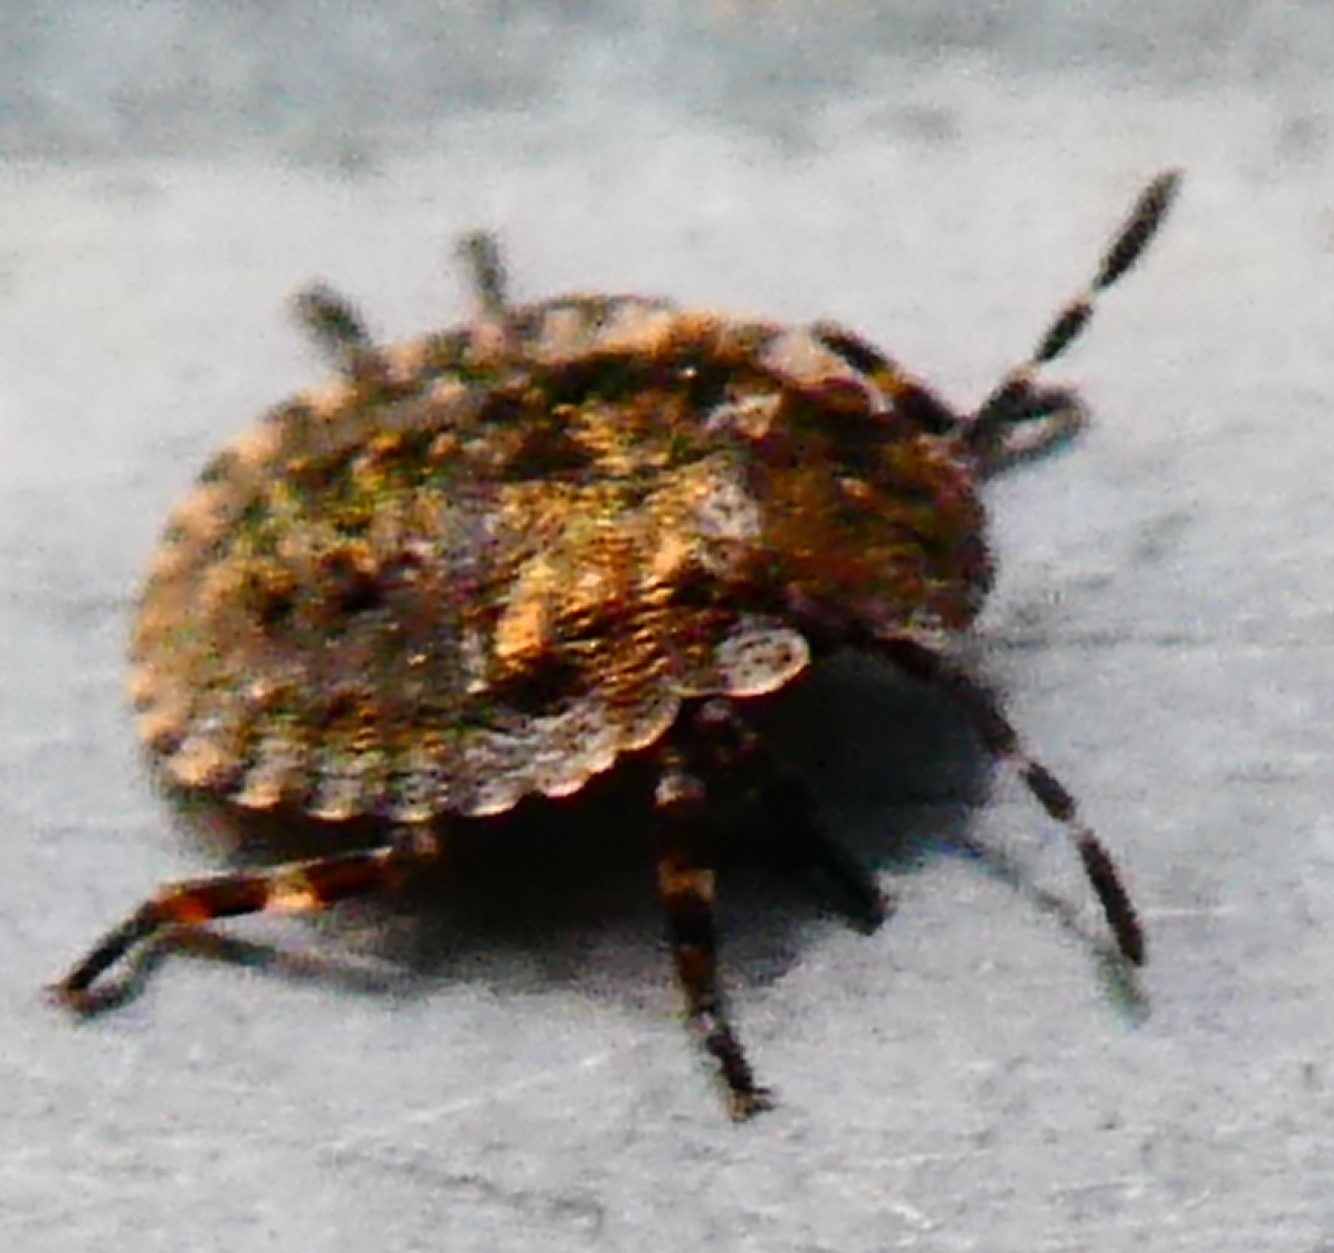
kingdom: Animalia
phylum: Arthropoda
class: Insecta
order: Hemiptera
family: Pentatomidae
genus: Pentatoma
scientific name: Pentatoma rufipes
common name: Forest bug
